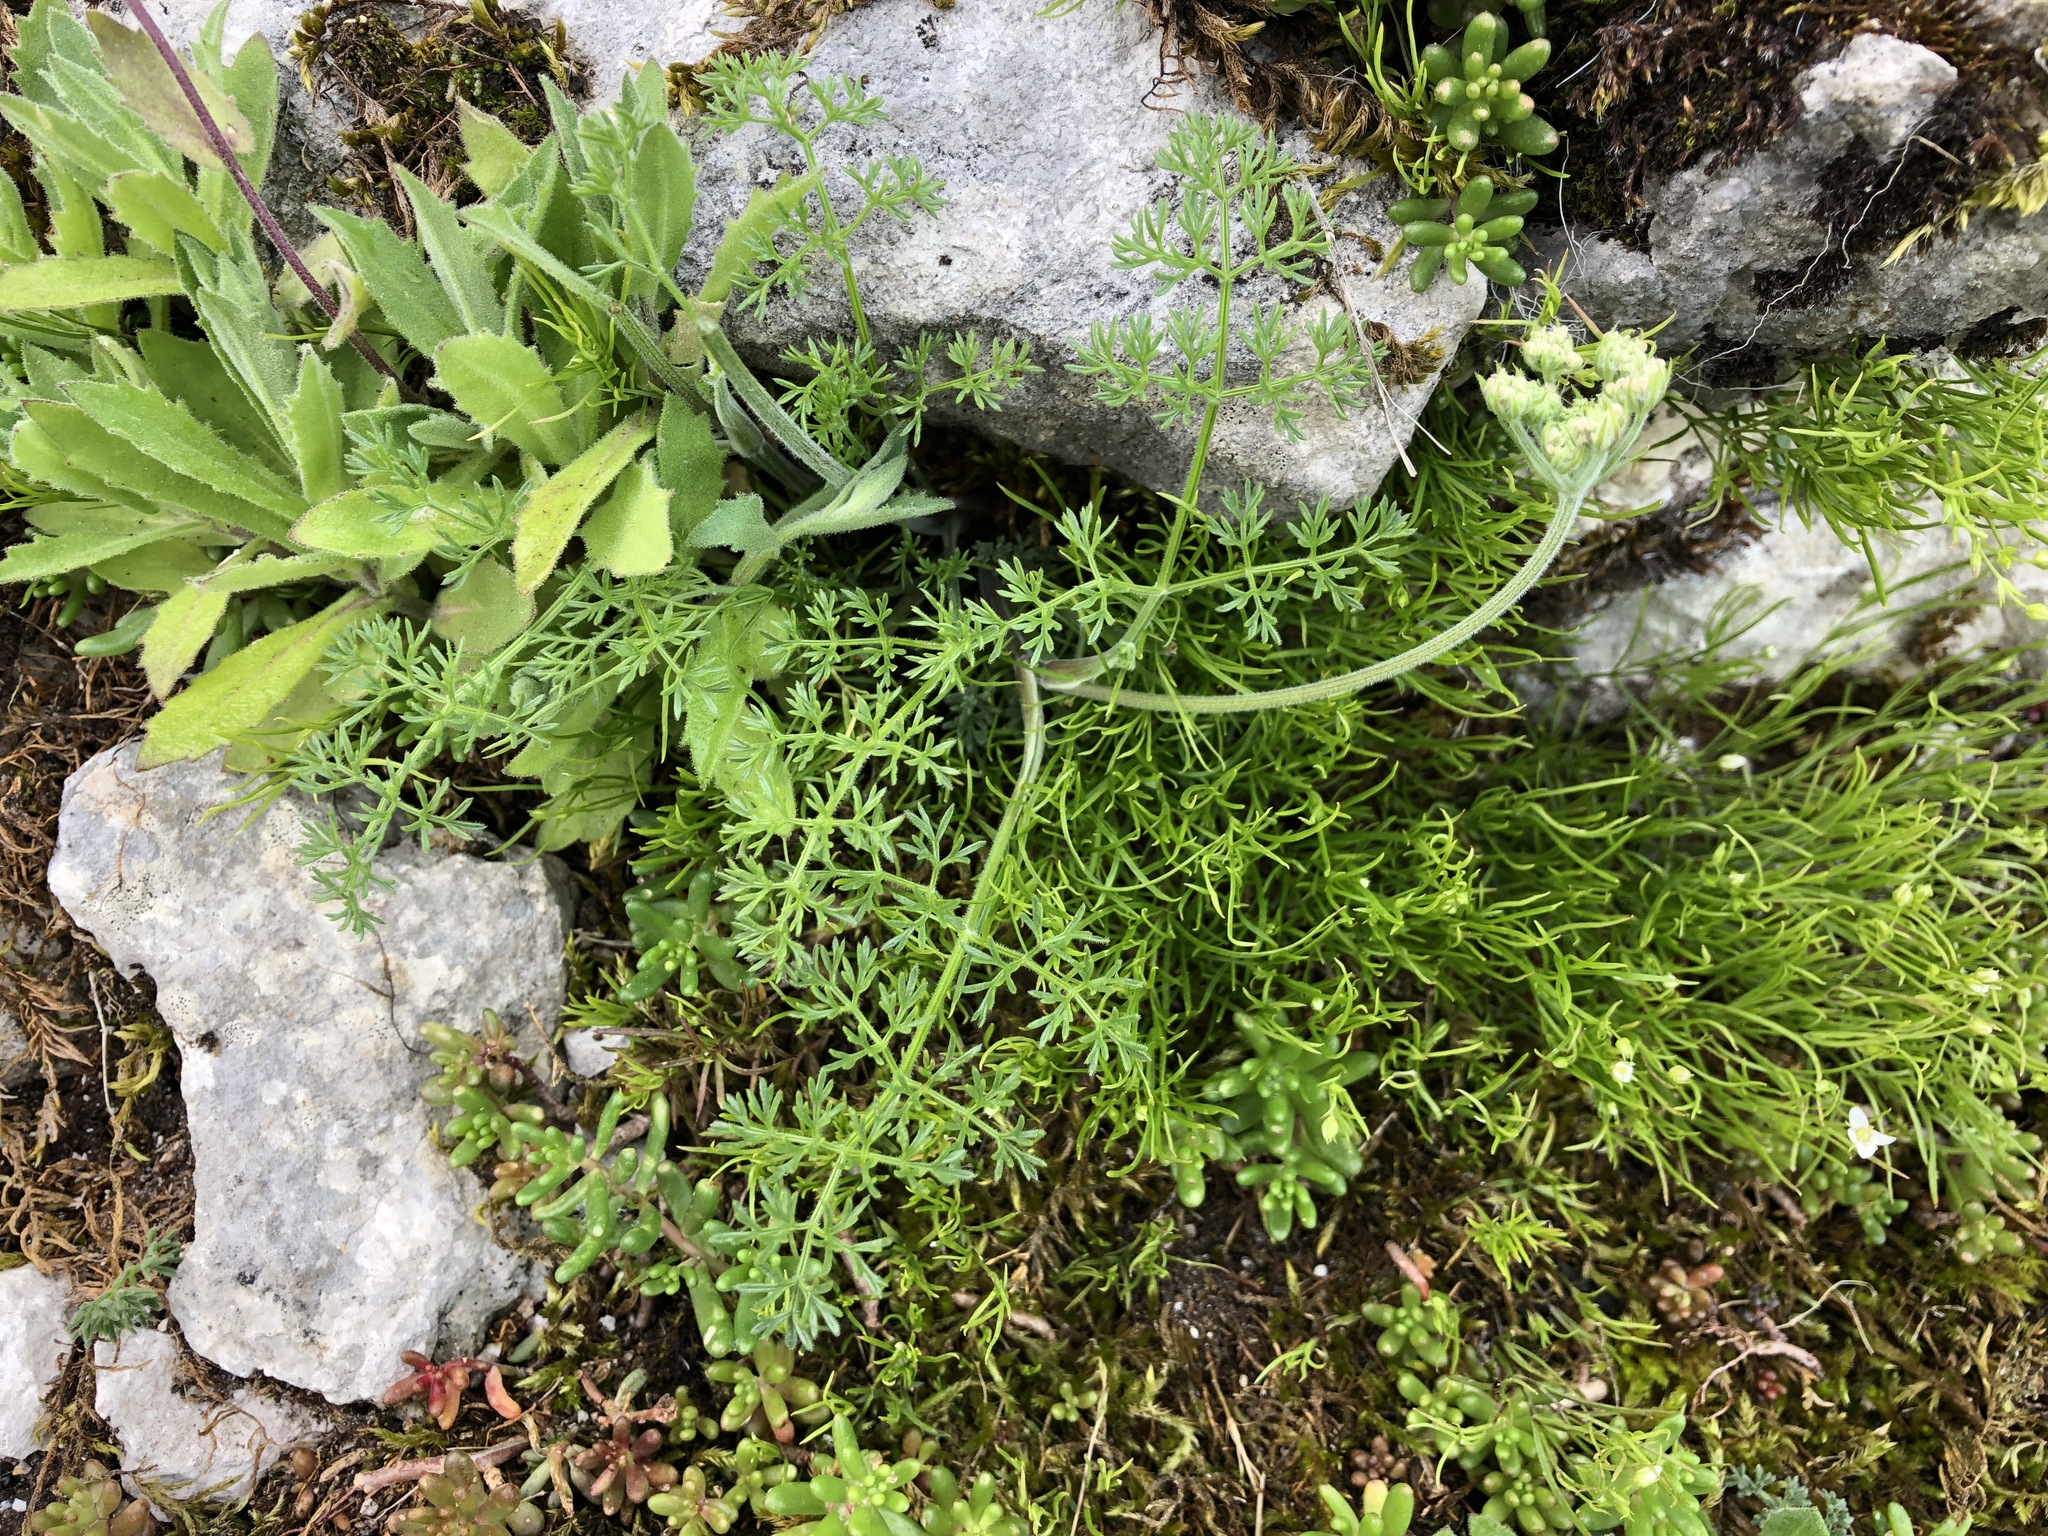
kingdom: Plantae
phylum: Tracheophyta
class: Magnoliopsida
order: Apiales
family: Apiaceae
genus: Athamanta
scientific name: Athamanta cretensis
